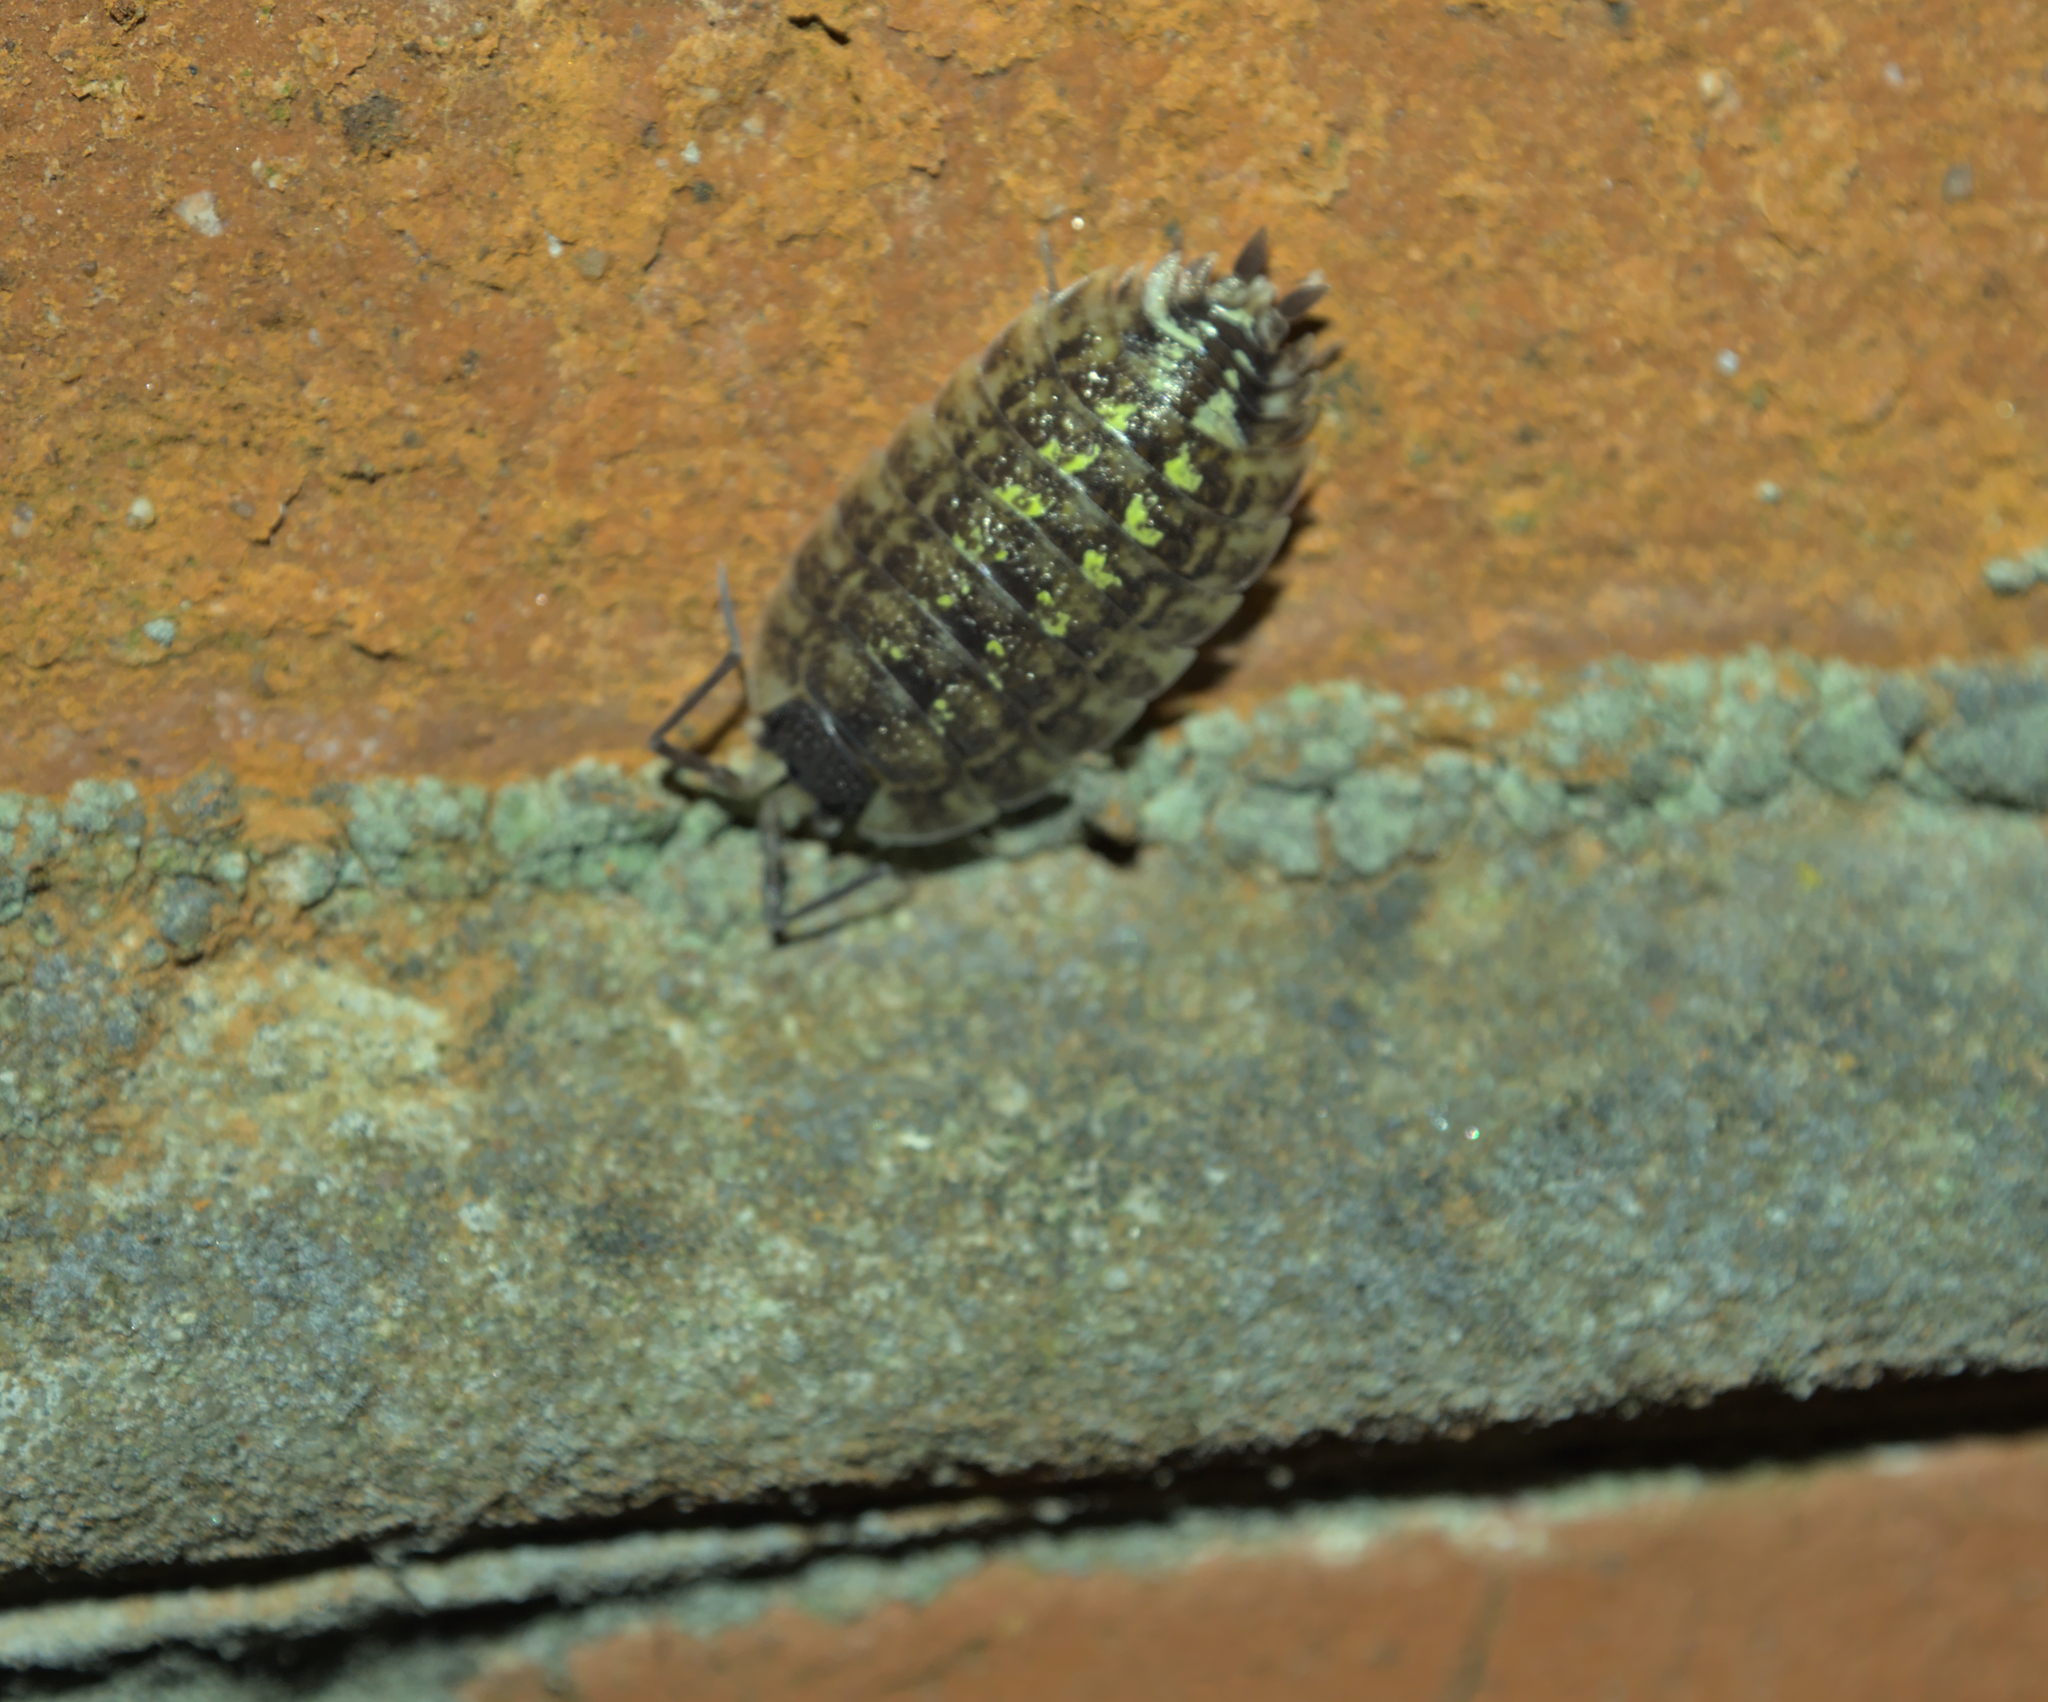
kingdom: Animalia
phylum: Arthropoda
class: Malacostraca
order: Isopoda
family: Porcellionidae
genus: Porcellio
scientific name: Porcellio spinicornis
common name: Painted woodlouse
